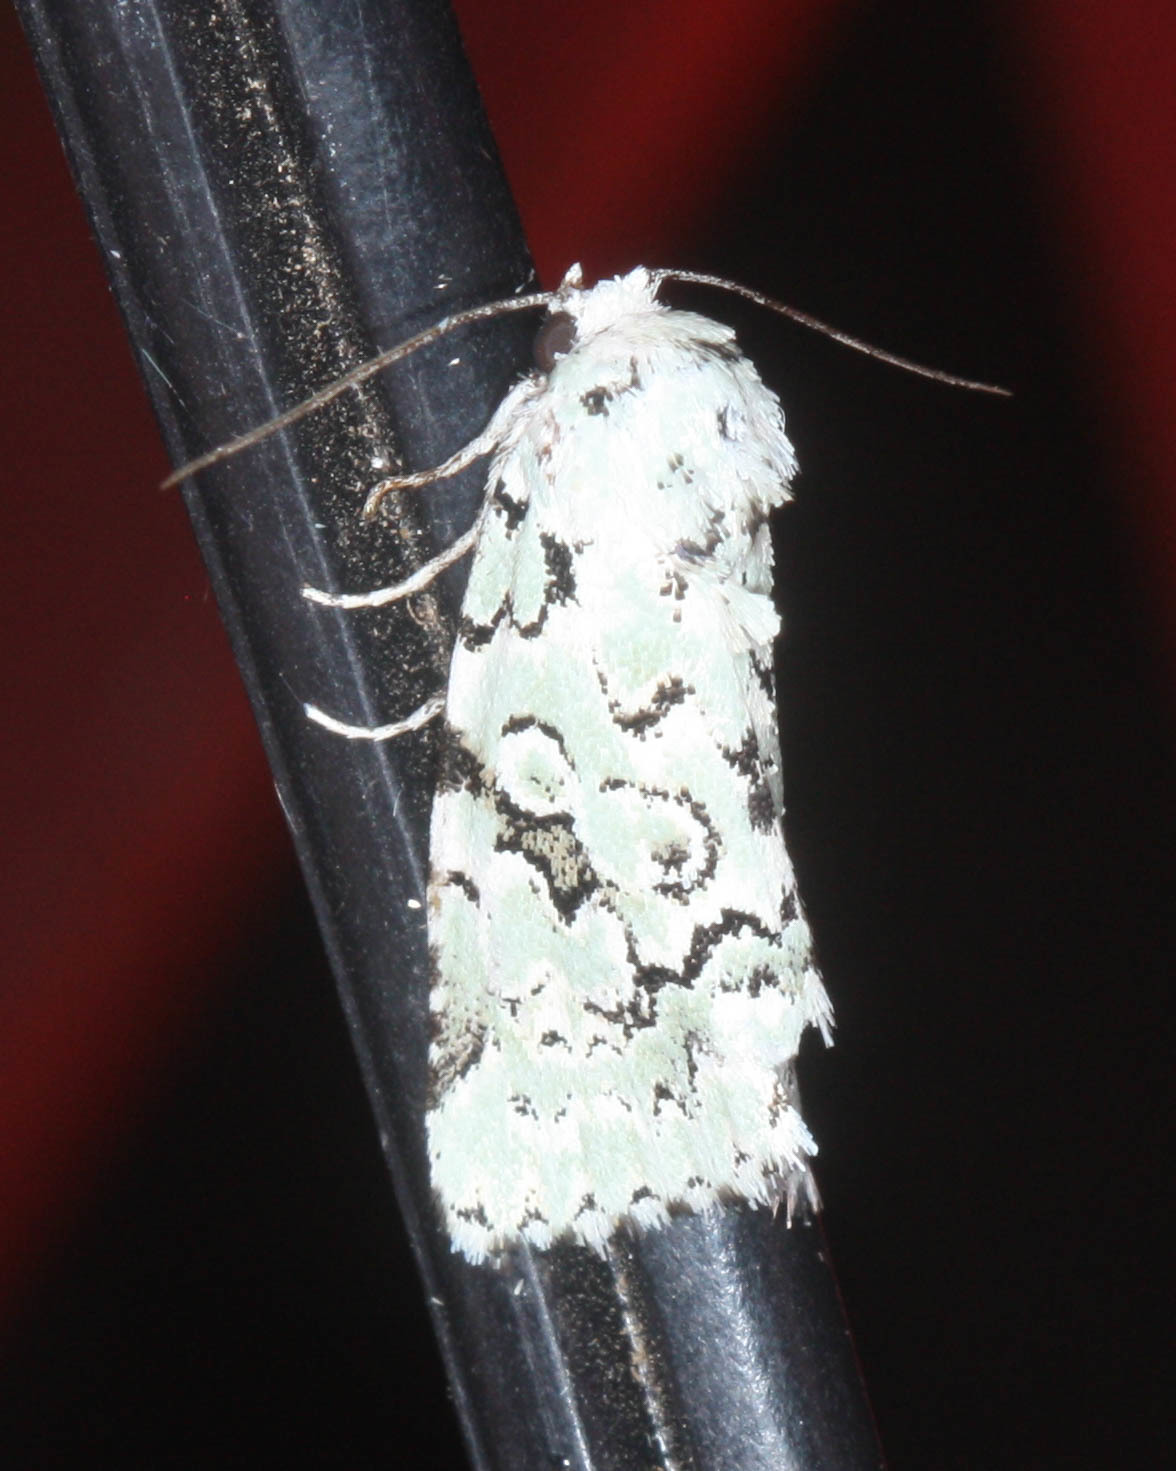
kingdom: Animalia
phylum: Arthropoda
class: Insecta
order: Lepidoptera
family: Noctuidae
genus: Bryolymnia
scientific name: Bryolymnia viridata
